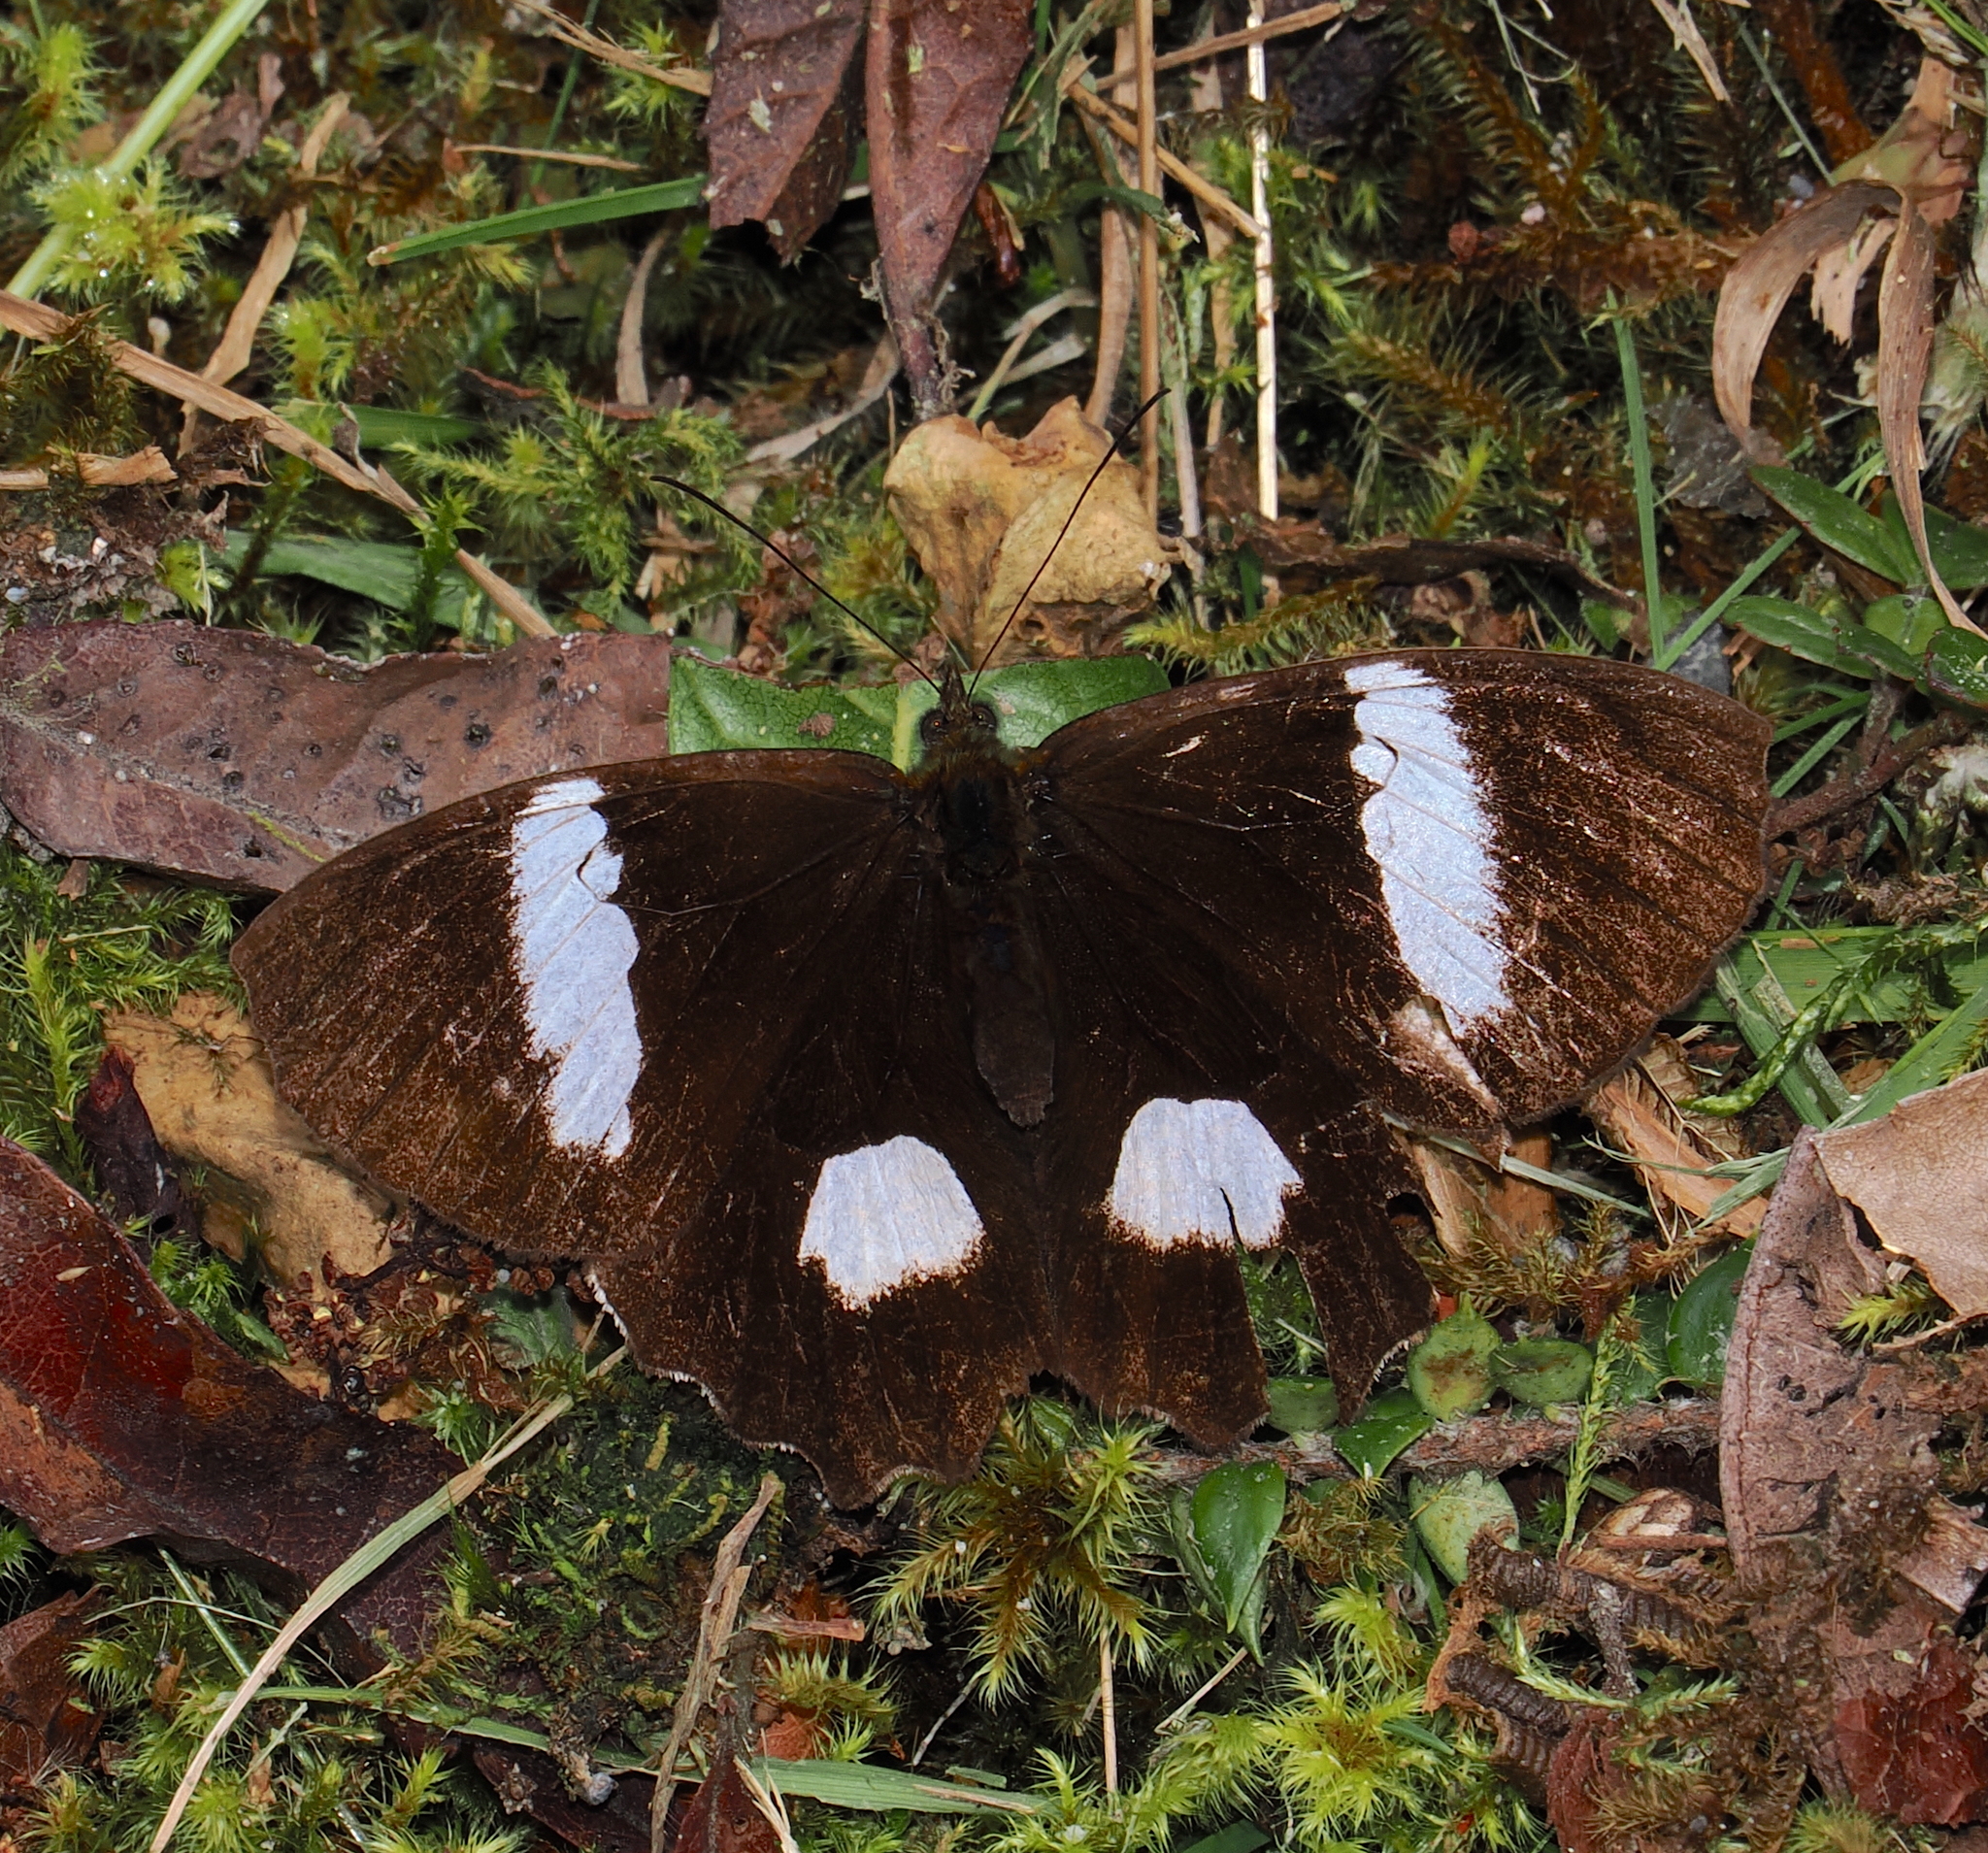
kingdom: Animalia
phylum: Arthropoda
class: Insecta
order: Lepidoptera
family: Nymphalidae
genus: Pedaliodes
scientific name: Pedaliodes phaedra
